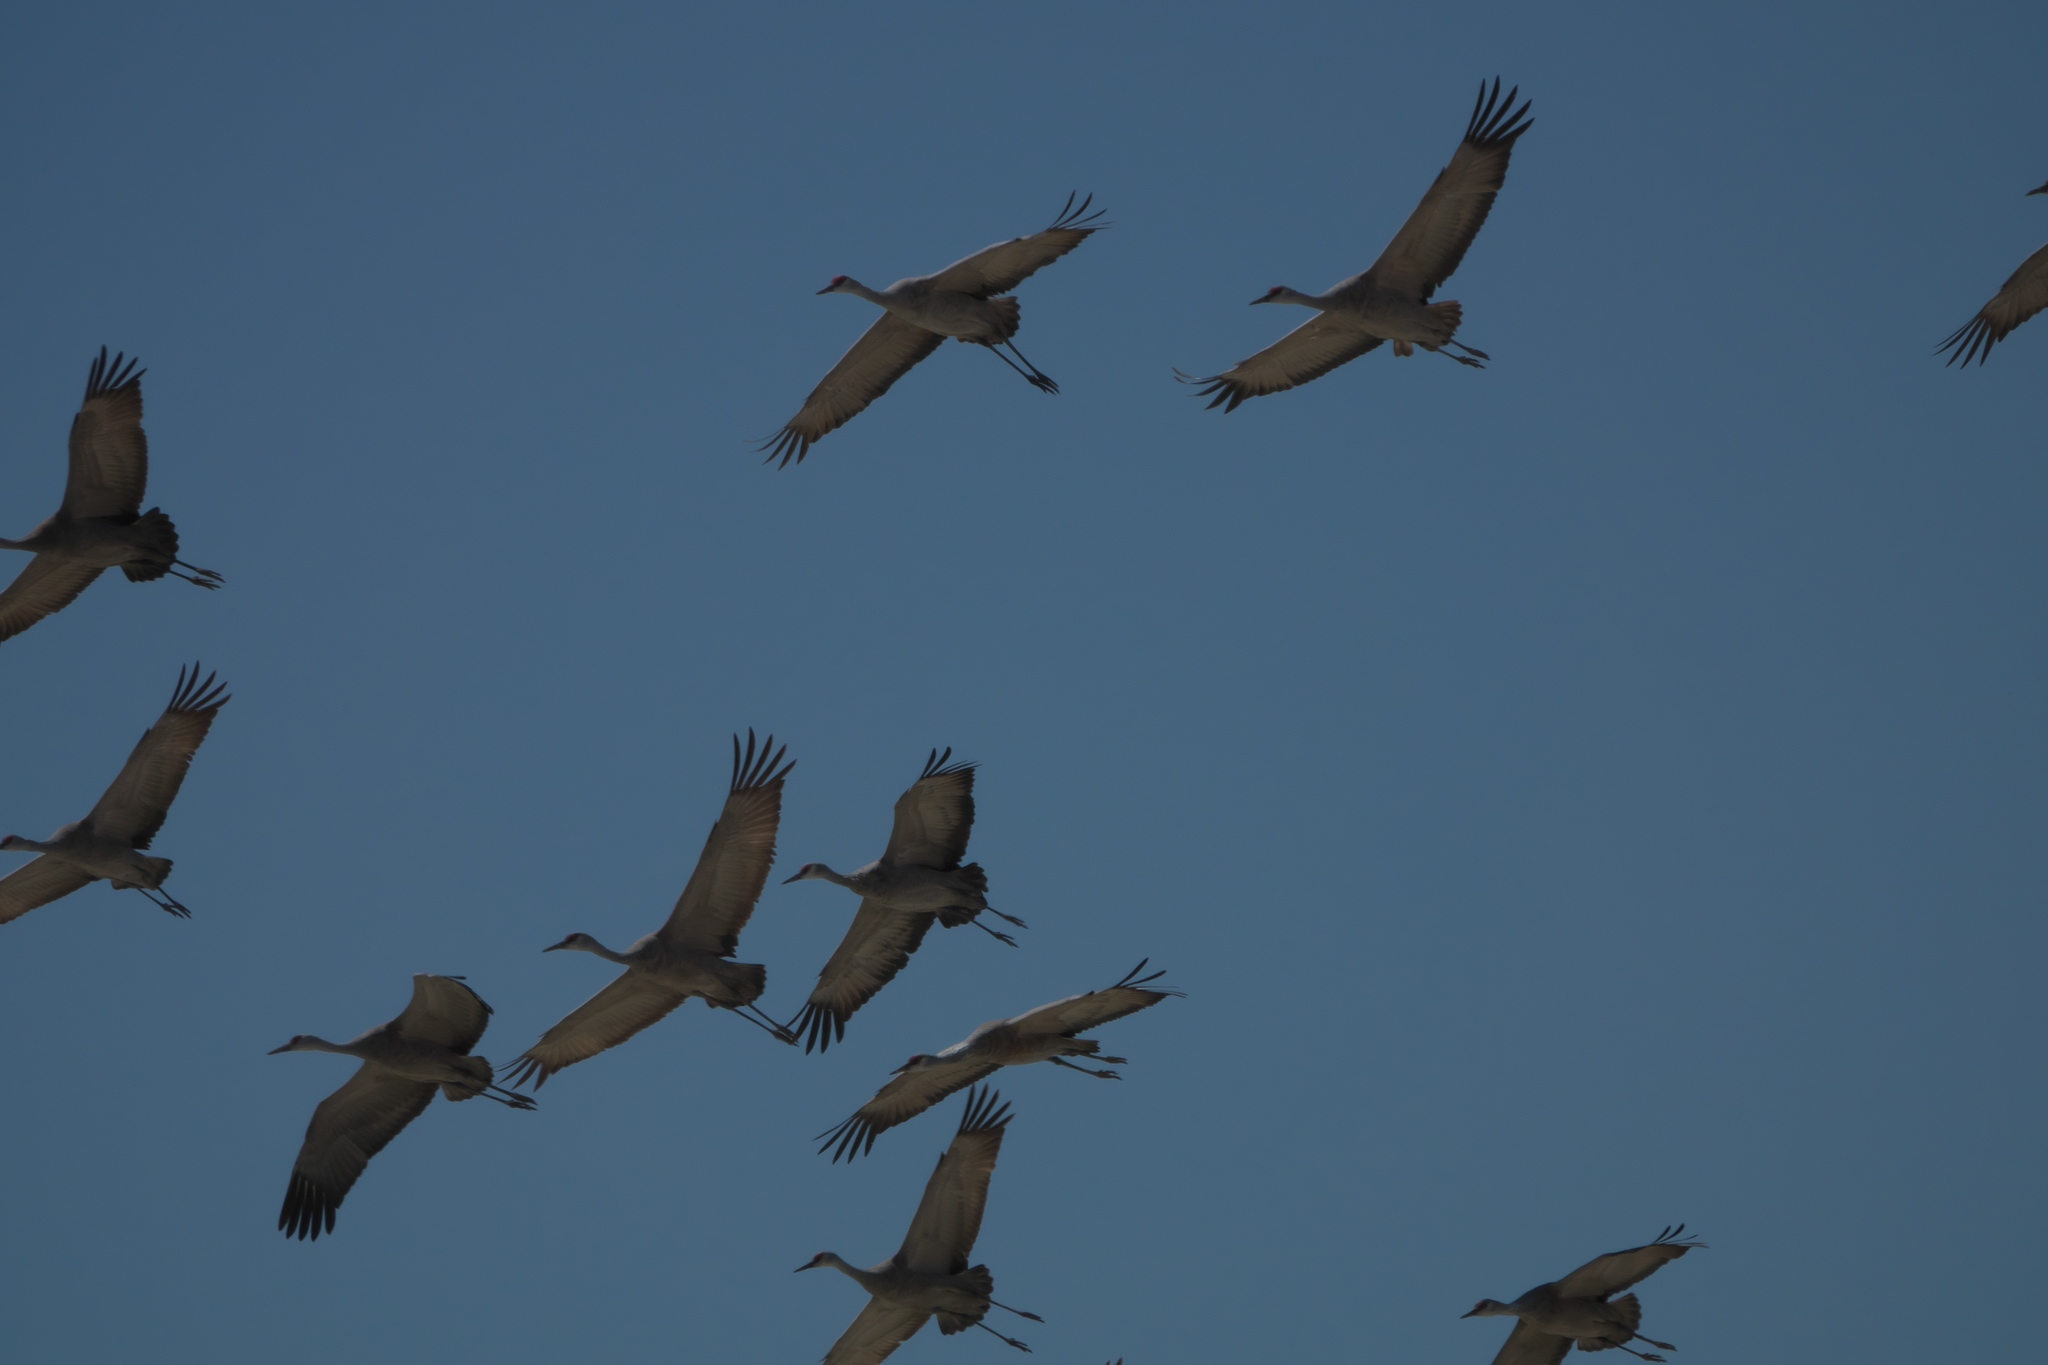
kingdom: Animalia
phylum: Chordata
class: Aves
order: Gruiformes
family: Gruidae
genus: Grus
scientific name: Grus canadensis
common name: Sandhill crane
